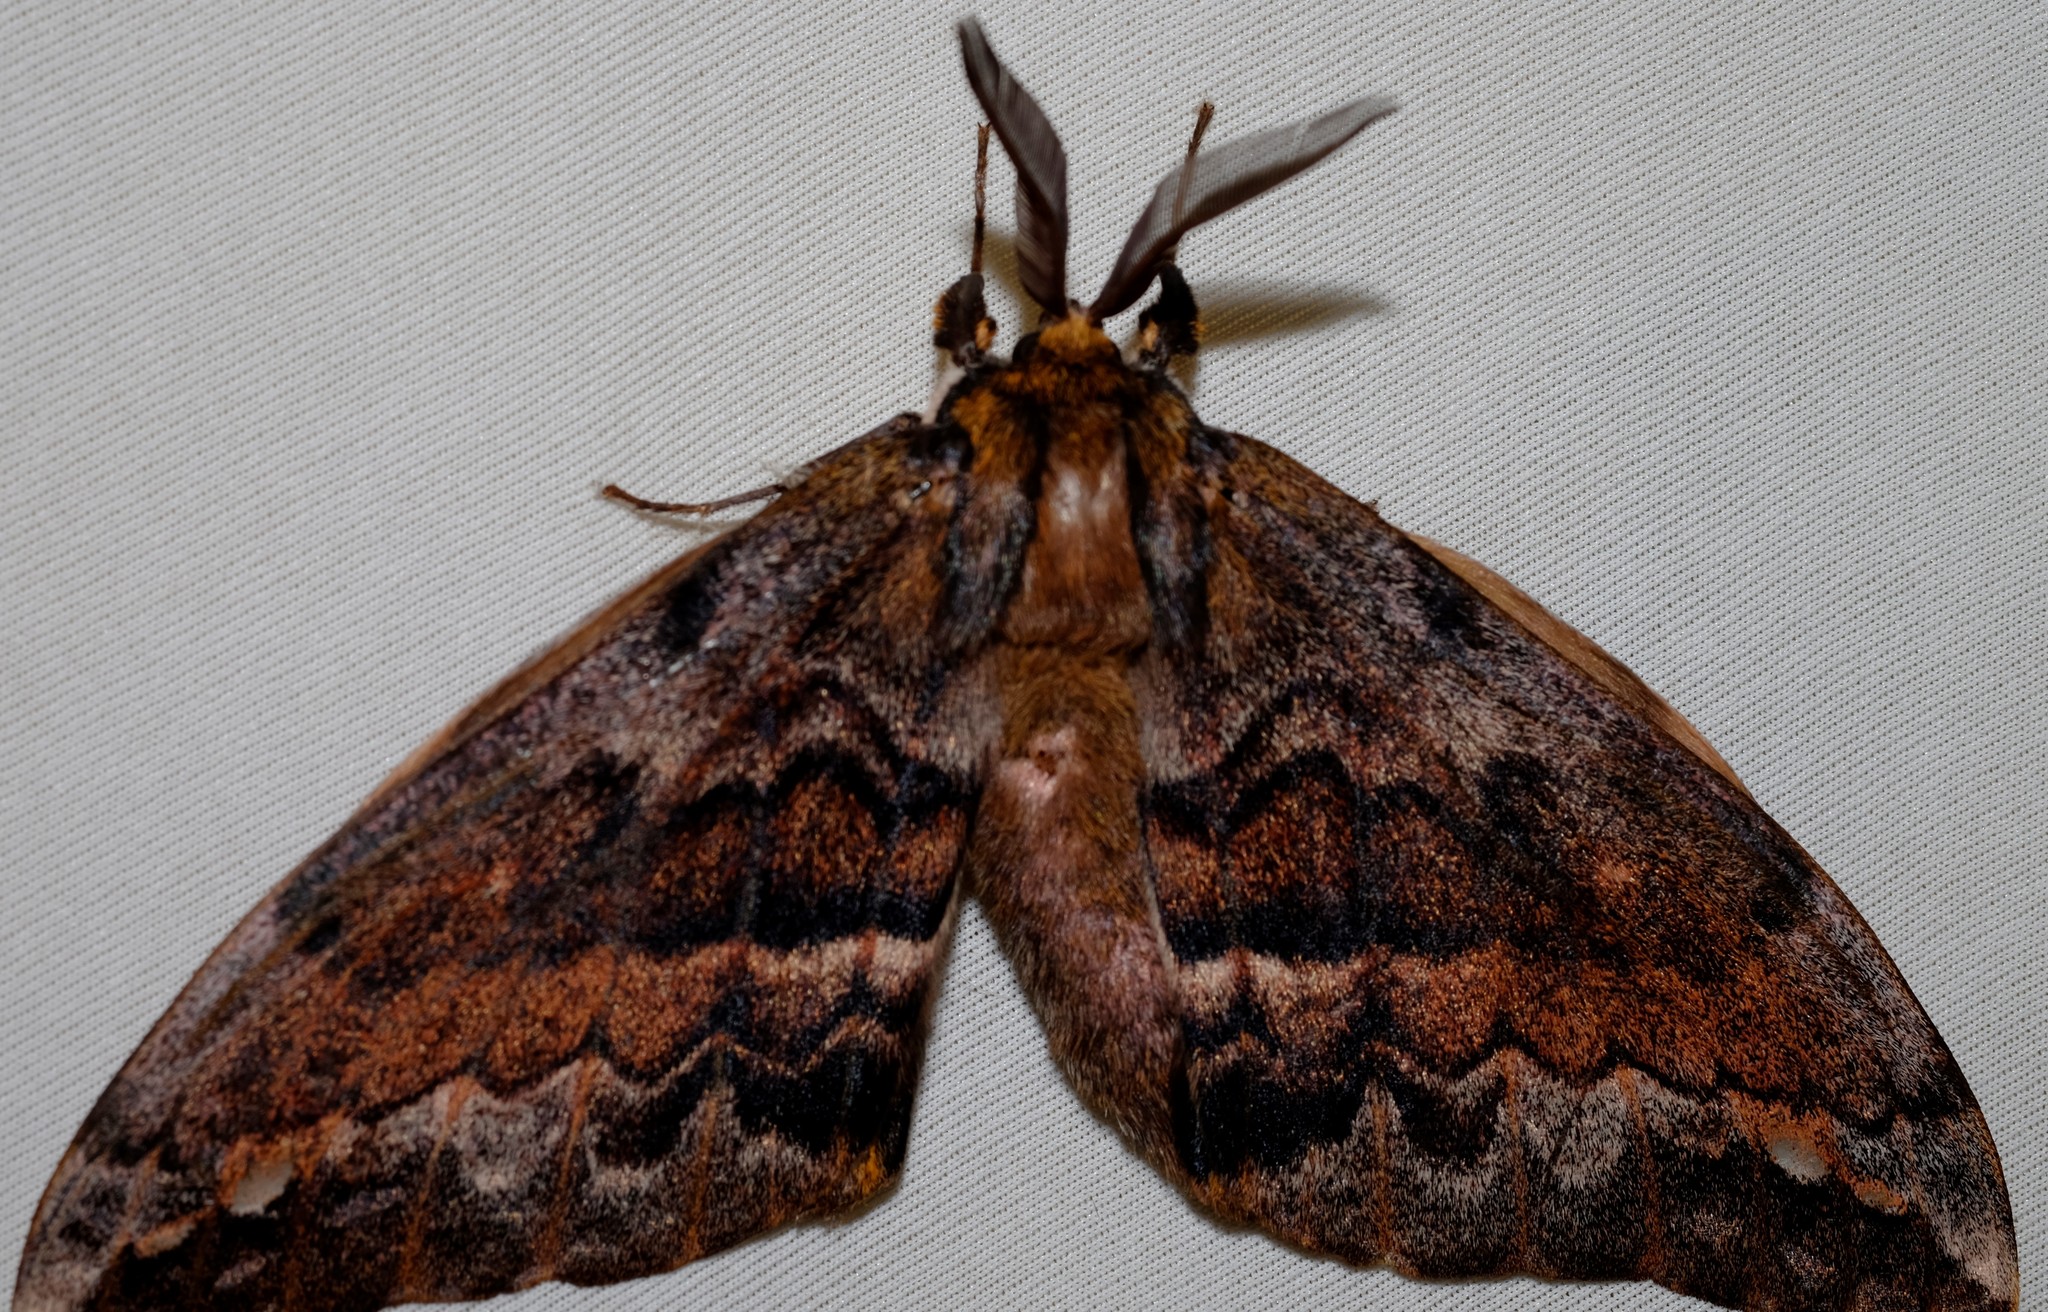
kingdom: Animalia
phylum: Arthropoda
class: Insecta
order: Lepidoptera
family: Anthelidae
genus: Chelepteryx
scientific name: Chelepteryx collesi
